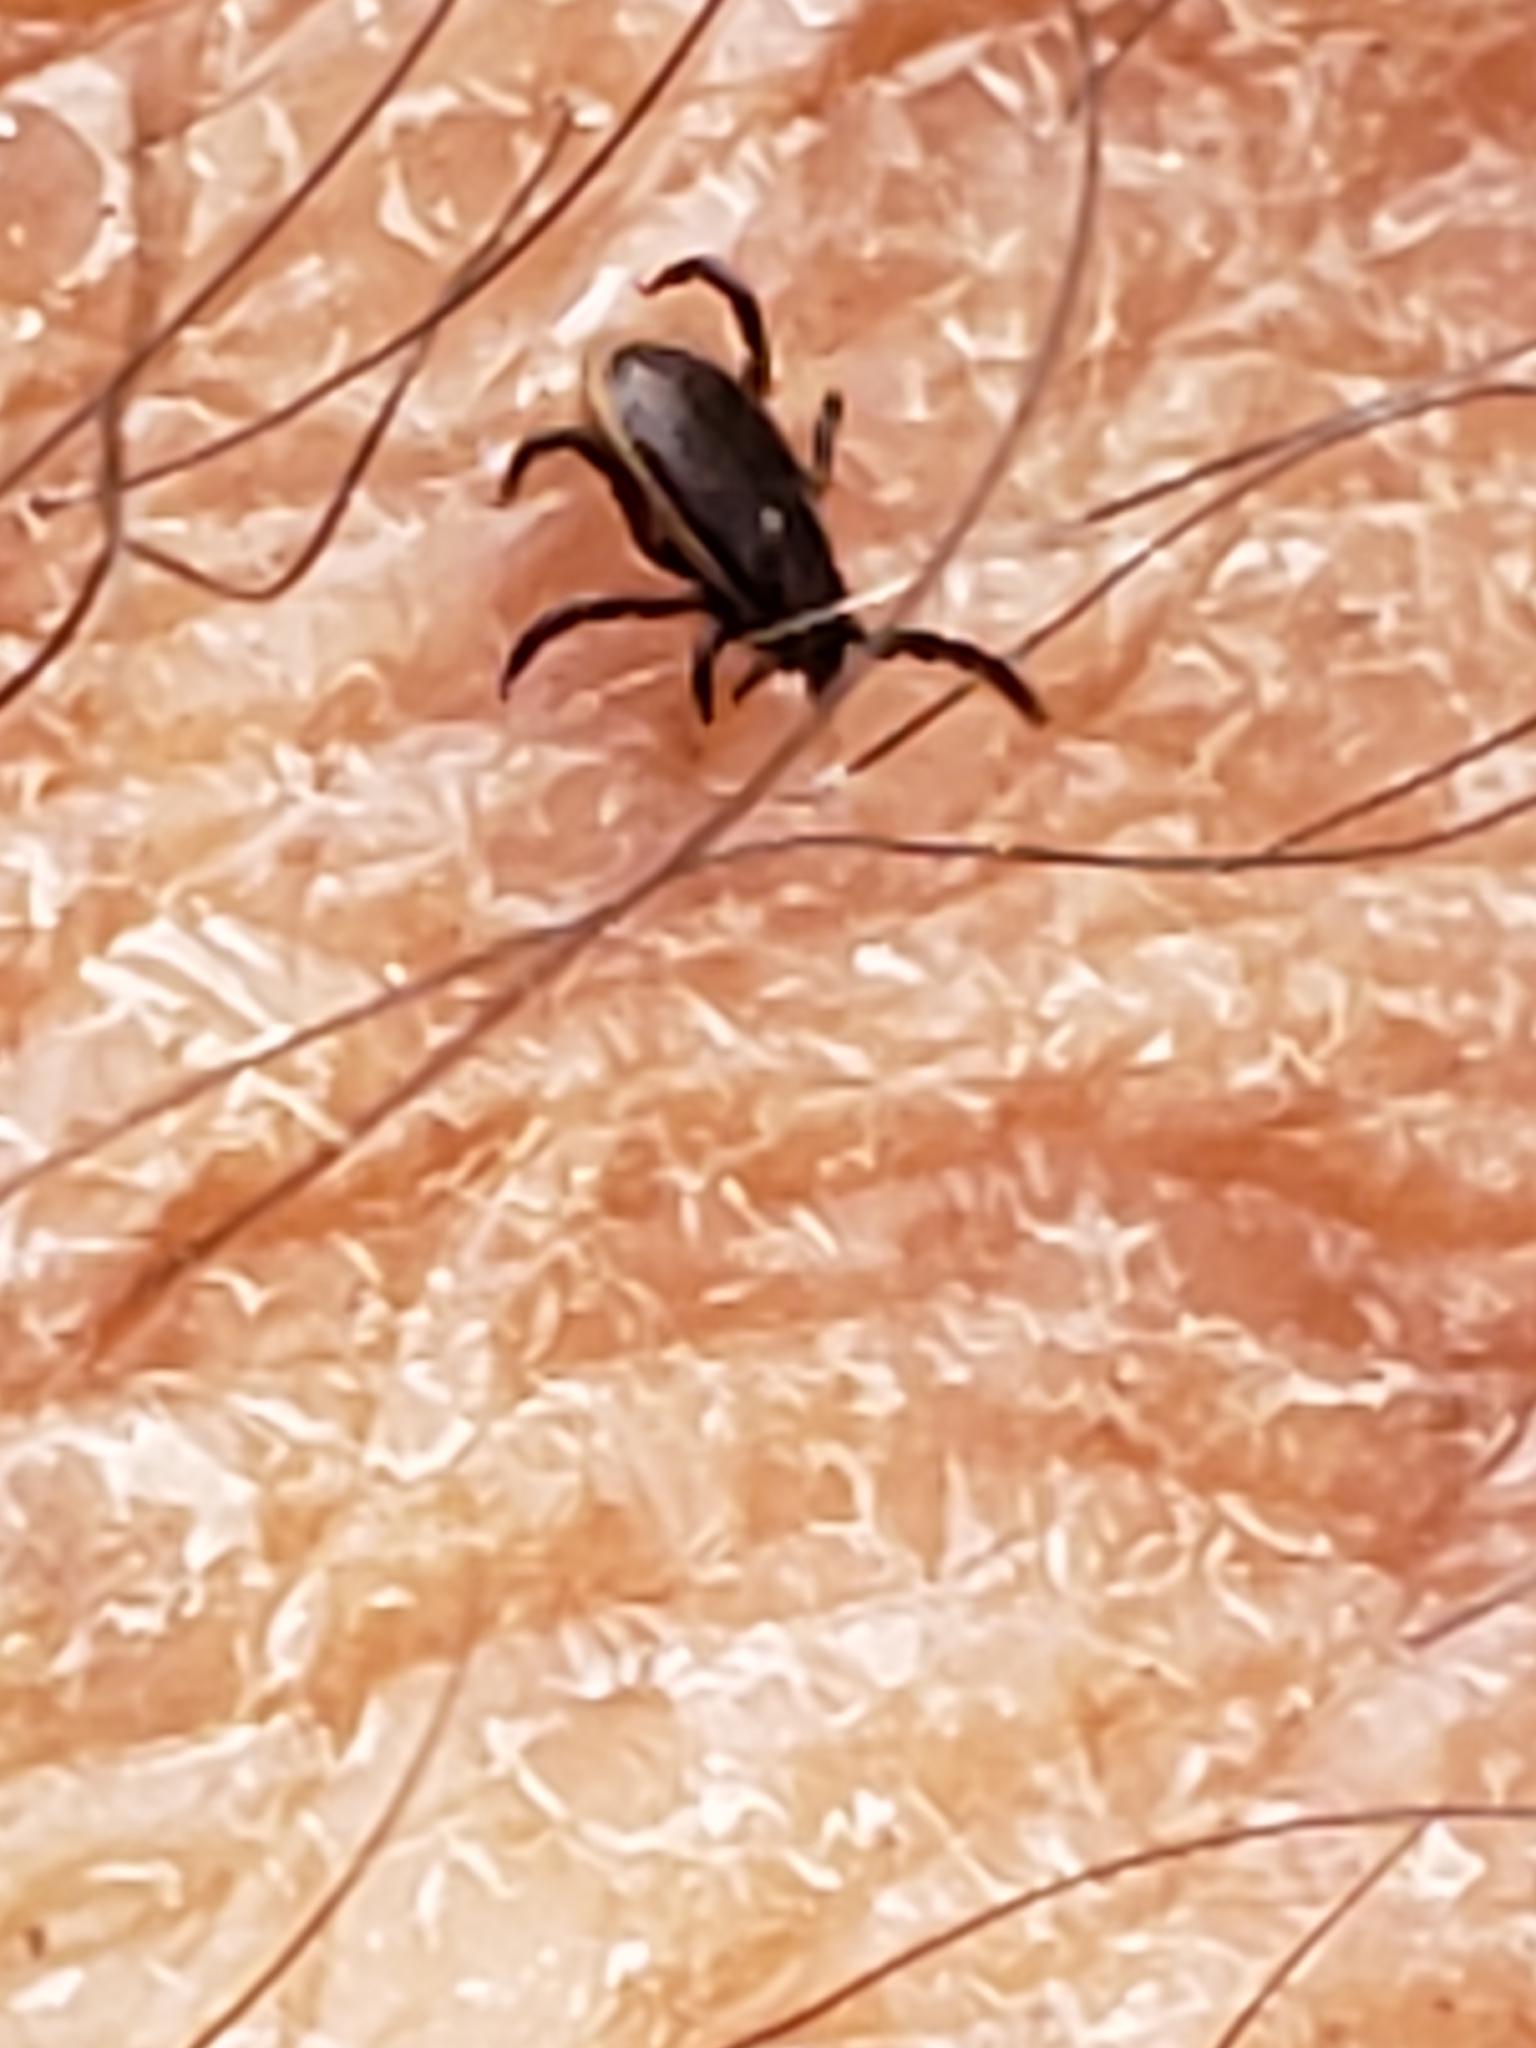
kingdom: Animalia
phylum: Arthropoda
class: Arachnida
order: Ixodida
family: Ixodidae
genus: Ixodes
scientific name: Ixodes scapularis
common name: Black legged tick
